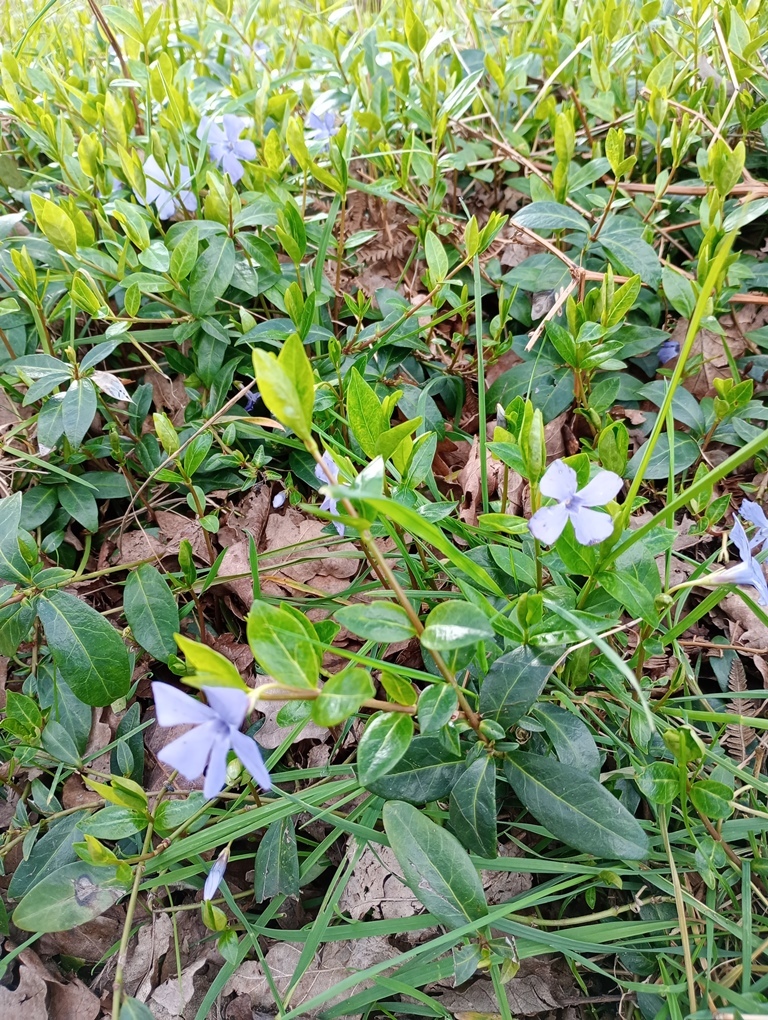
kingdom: Plantae
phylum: Tracheophyta
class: Magnoliopsida
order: Gentianales
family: Apocynaceae
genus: Vinca
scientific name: Vinca minor
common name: Lesser periwinkle
